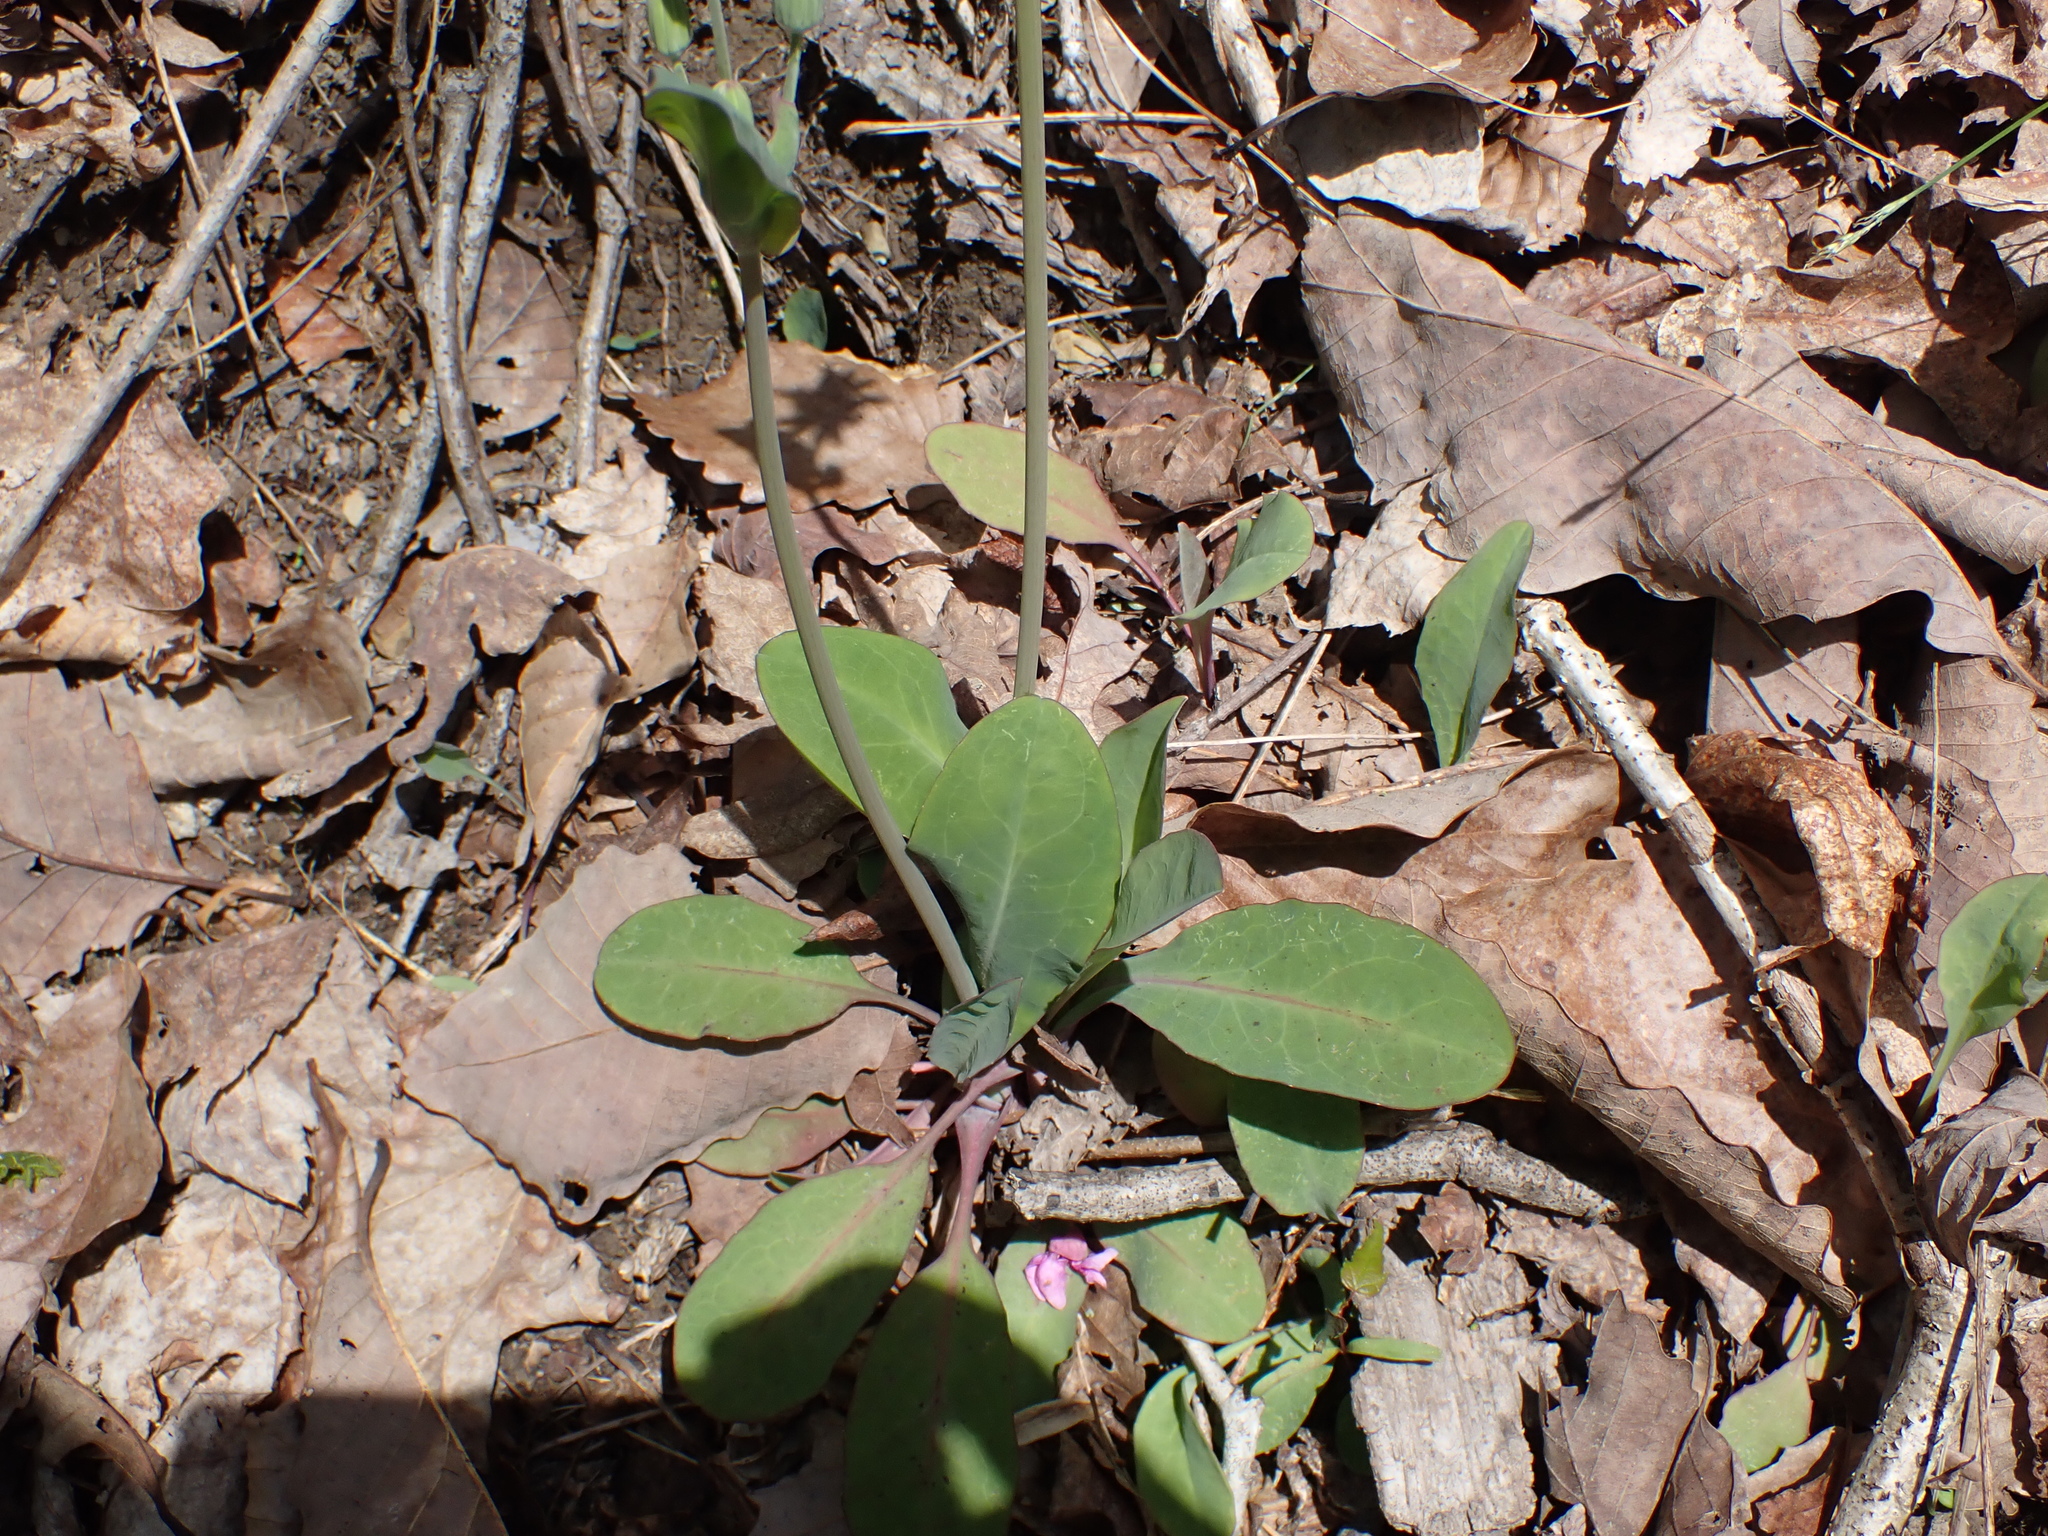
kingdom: Plantae
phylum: Tracheophyta
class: Magnoliopsida
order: Asterales
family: Asteraceae
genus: Krigia
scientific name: Krigia biflora
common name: Orange dwarf-dandelion
